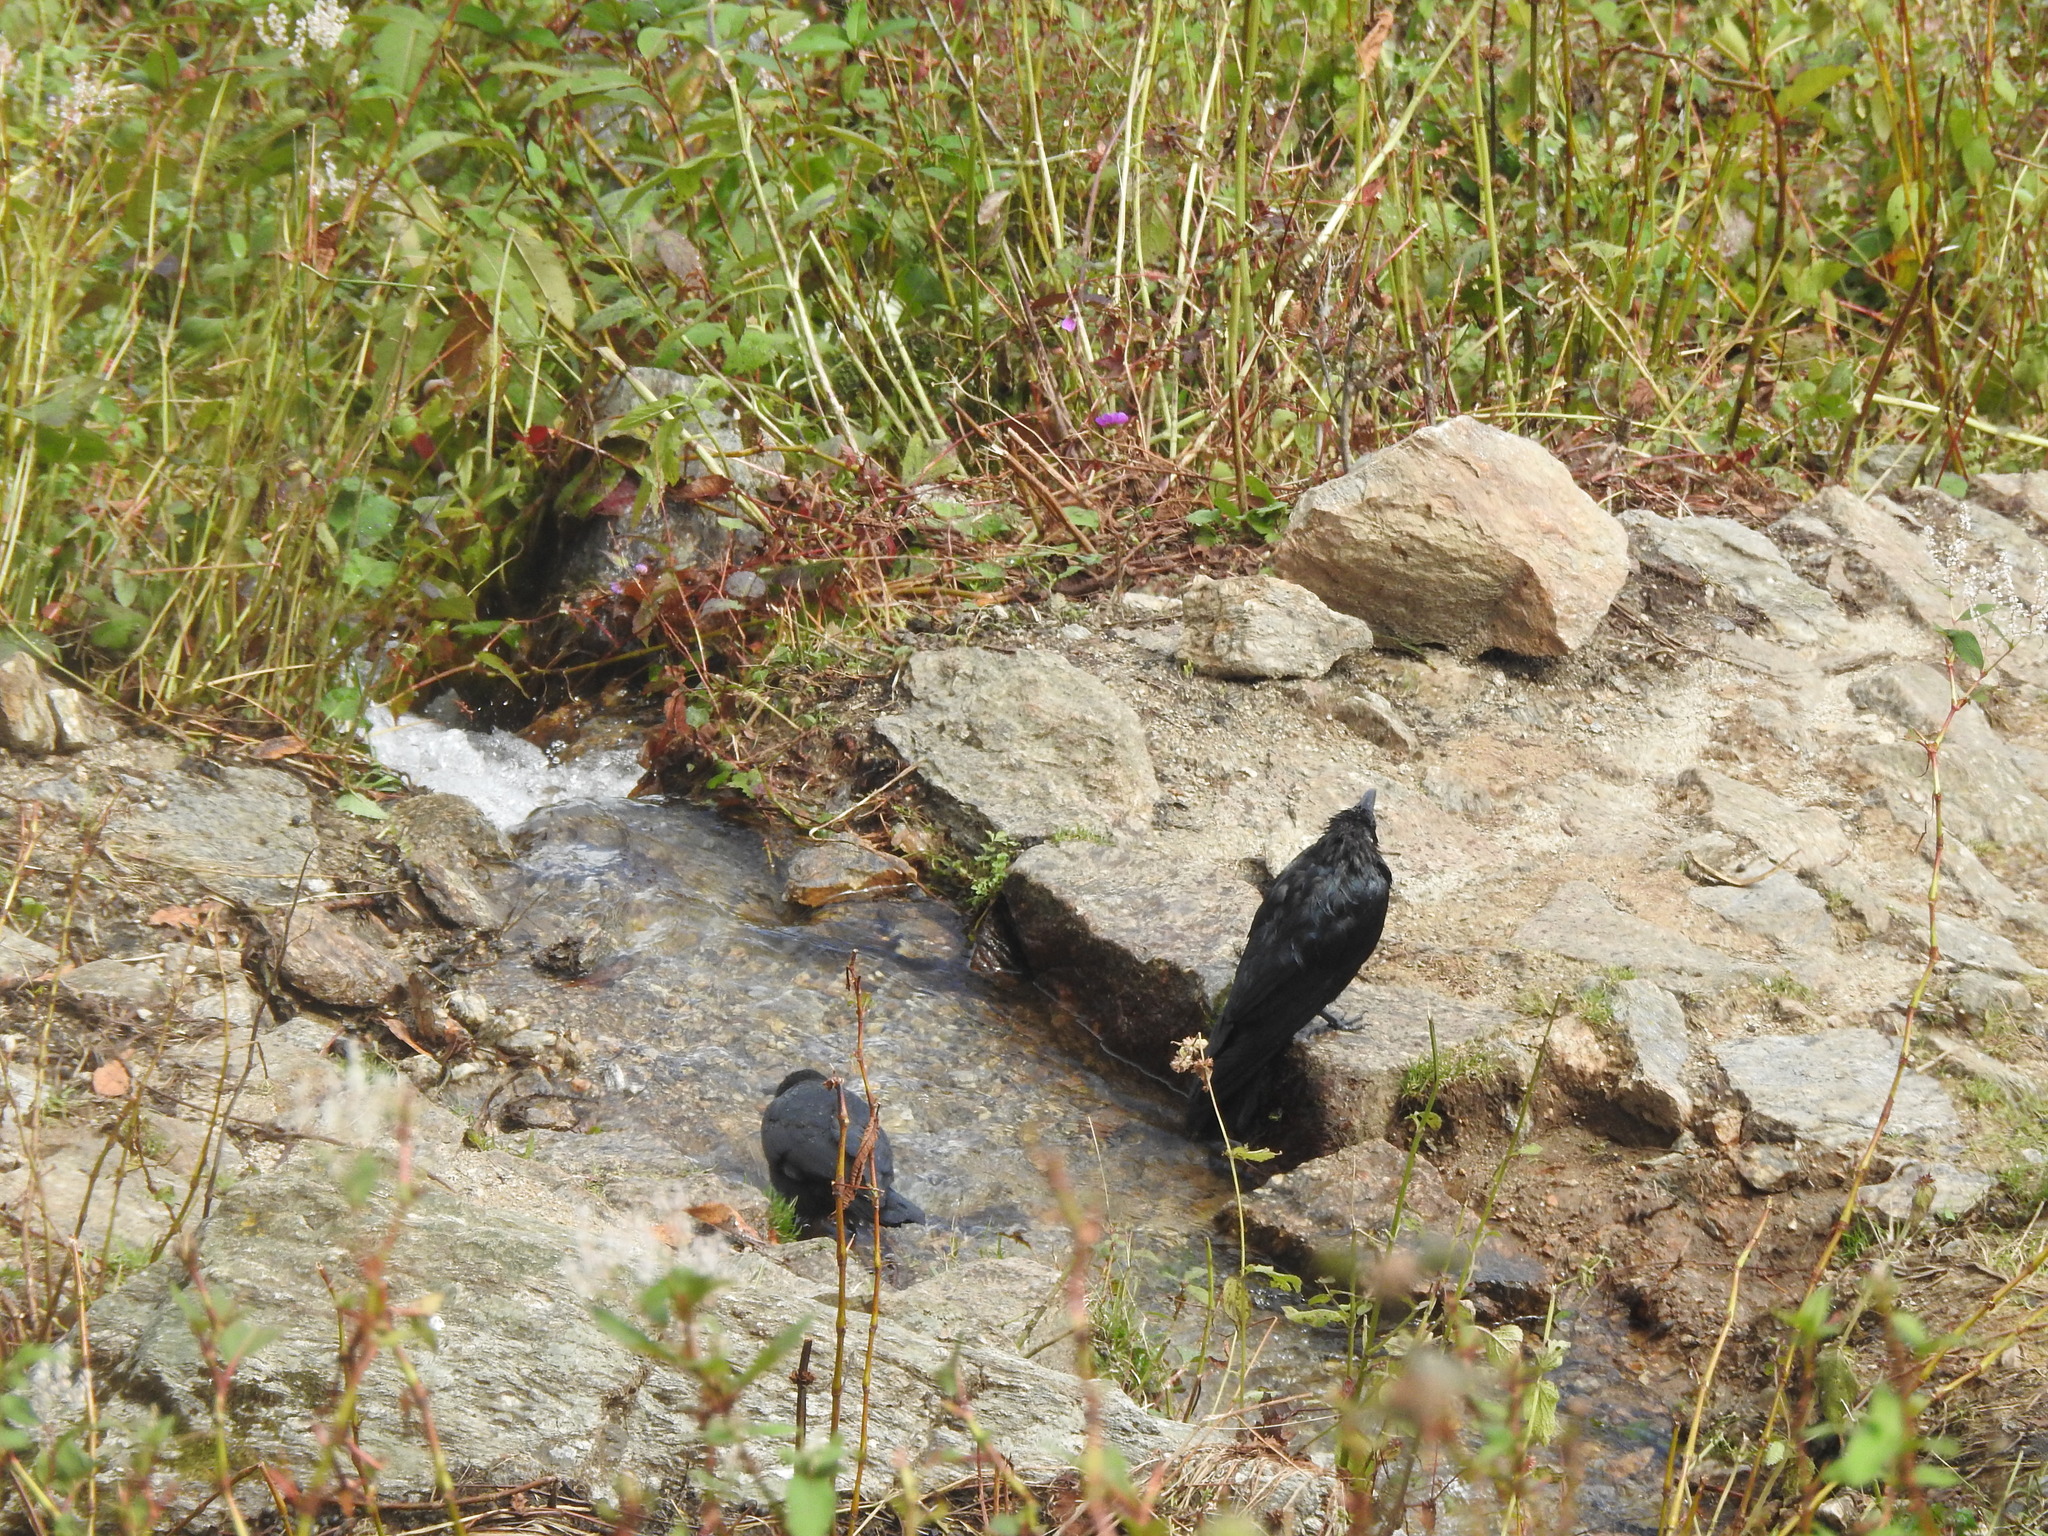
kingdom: Animalia
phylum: Chordata
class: Aves
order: Passeriformes
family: Corvidae
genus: Corvus
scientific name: Corvus macrorhynchos
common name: Large-billed crow
